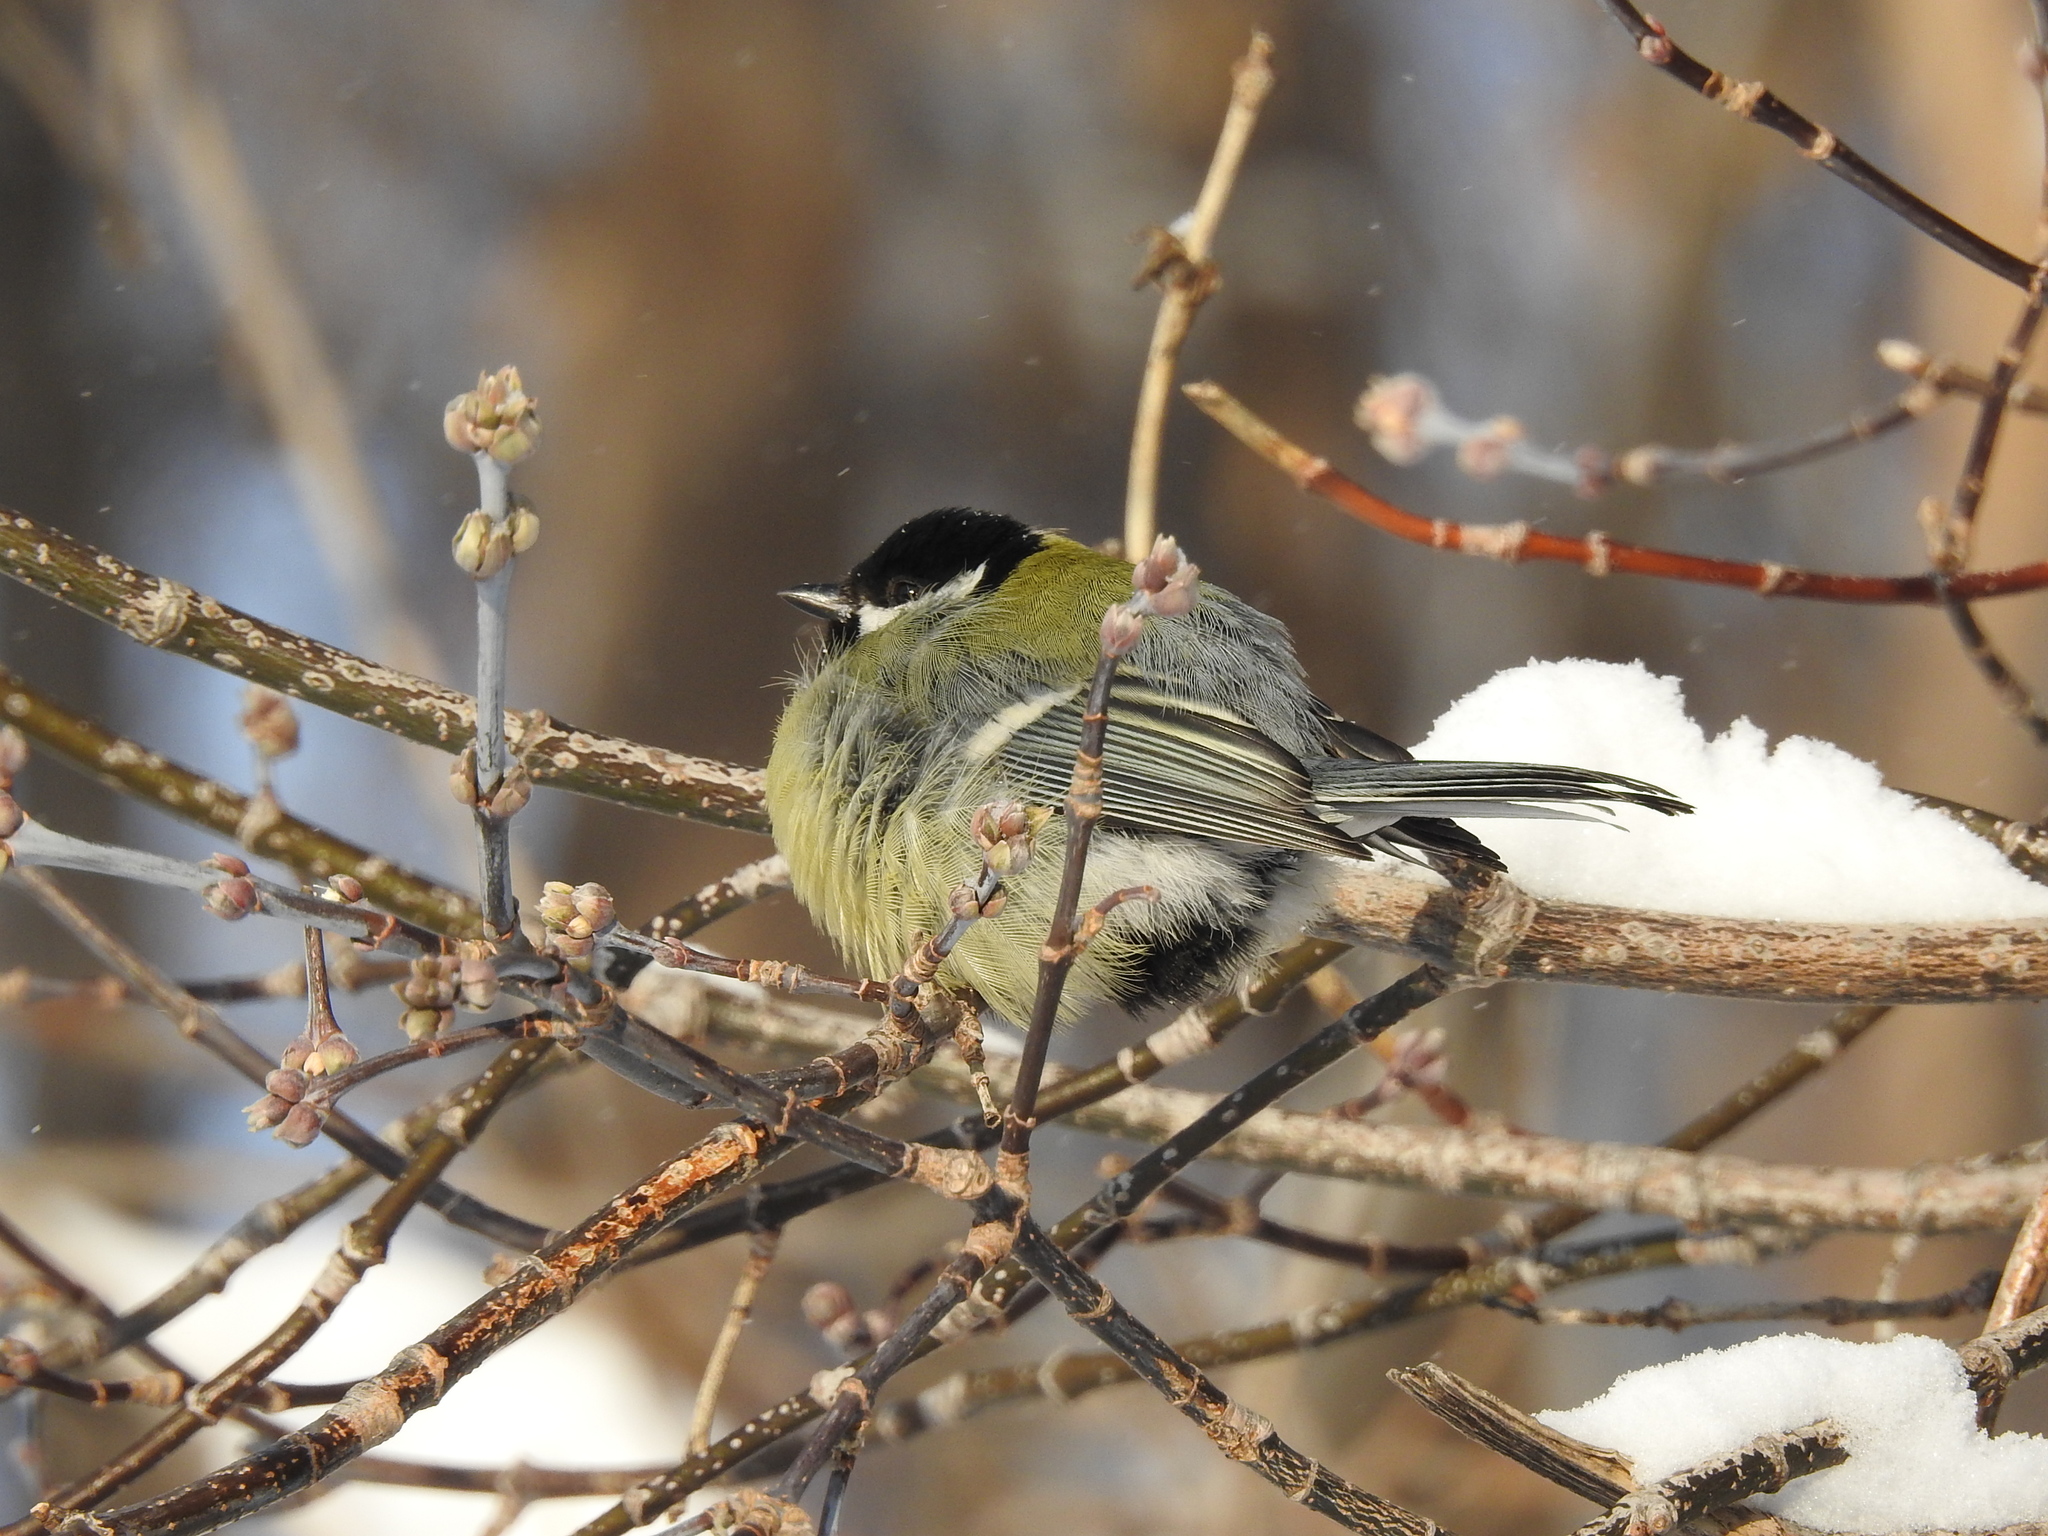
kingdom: Animalia
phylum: Chordata
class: Aves
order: Passeriformes
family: Paridae
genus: Parus
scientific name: Parus major
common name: Great tit
